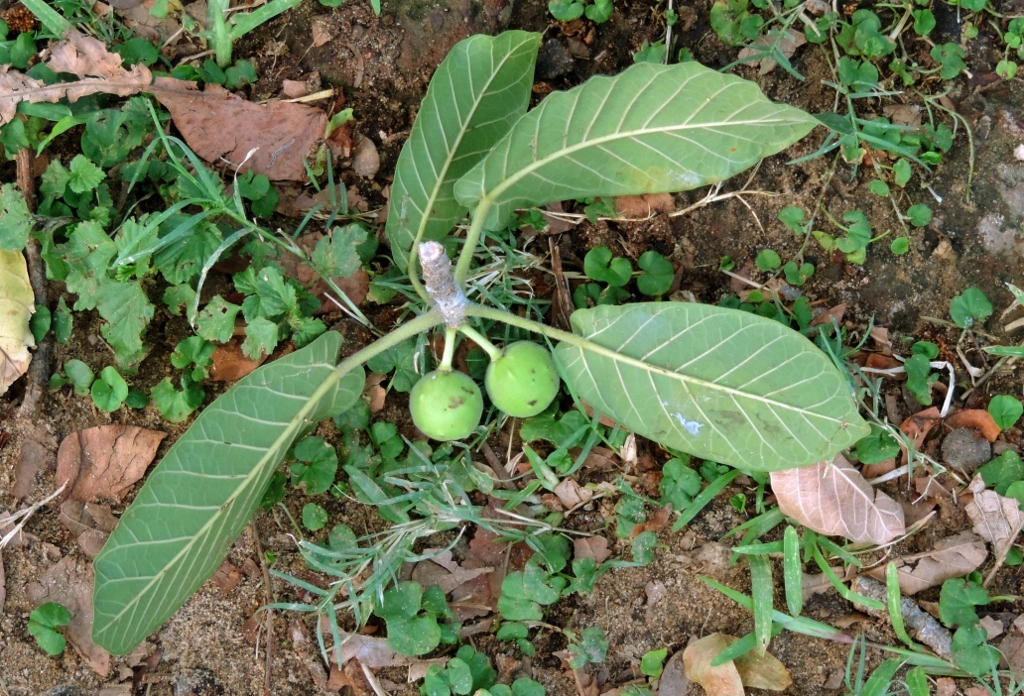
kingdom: Plantae
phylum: Tracheophyta
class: Magnoliopsida
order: Rosales
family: Moraceae
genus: Ficus
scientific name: Ficus bussei
